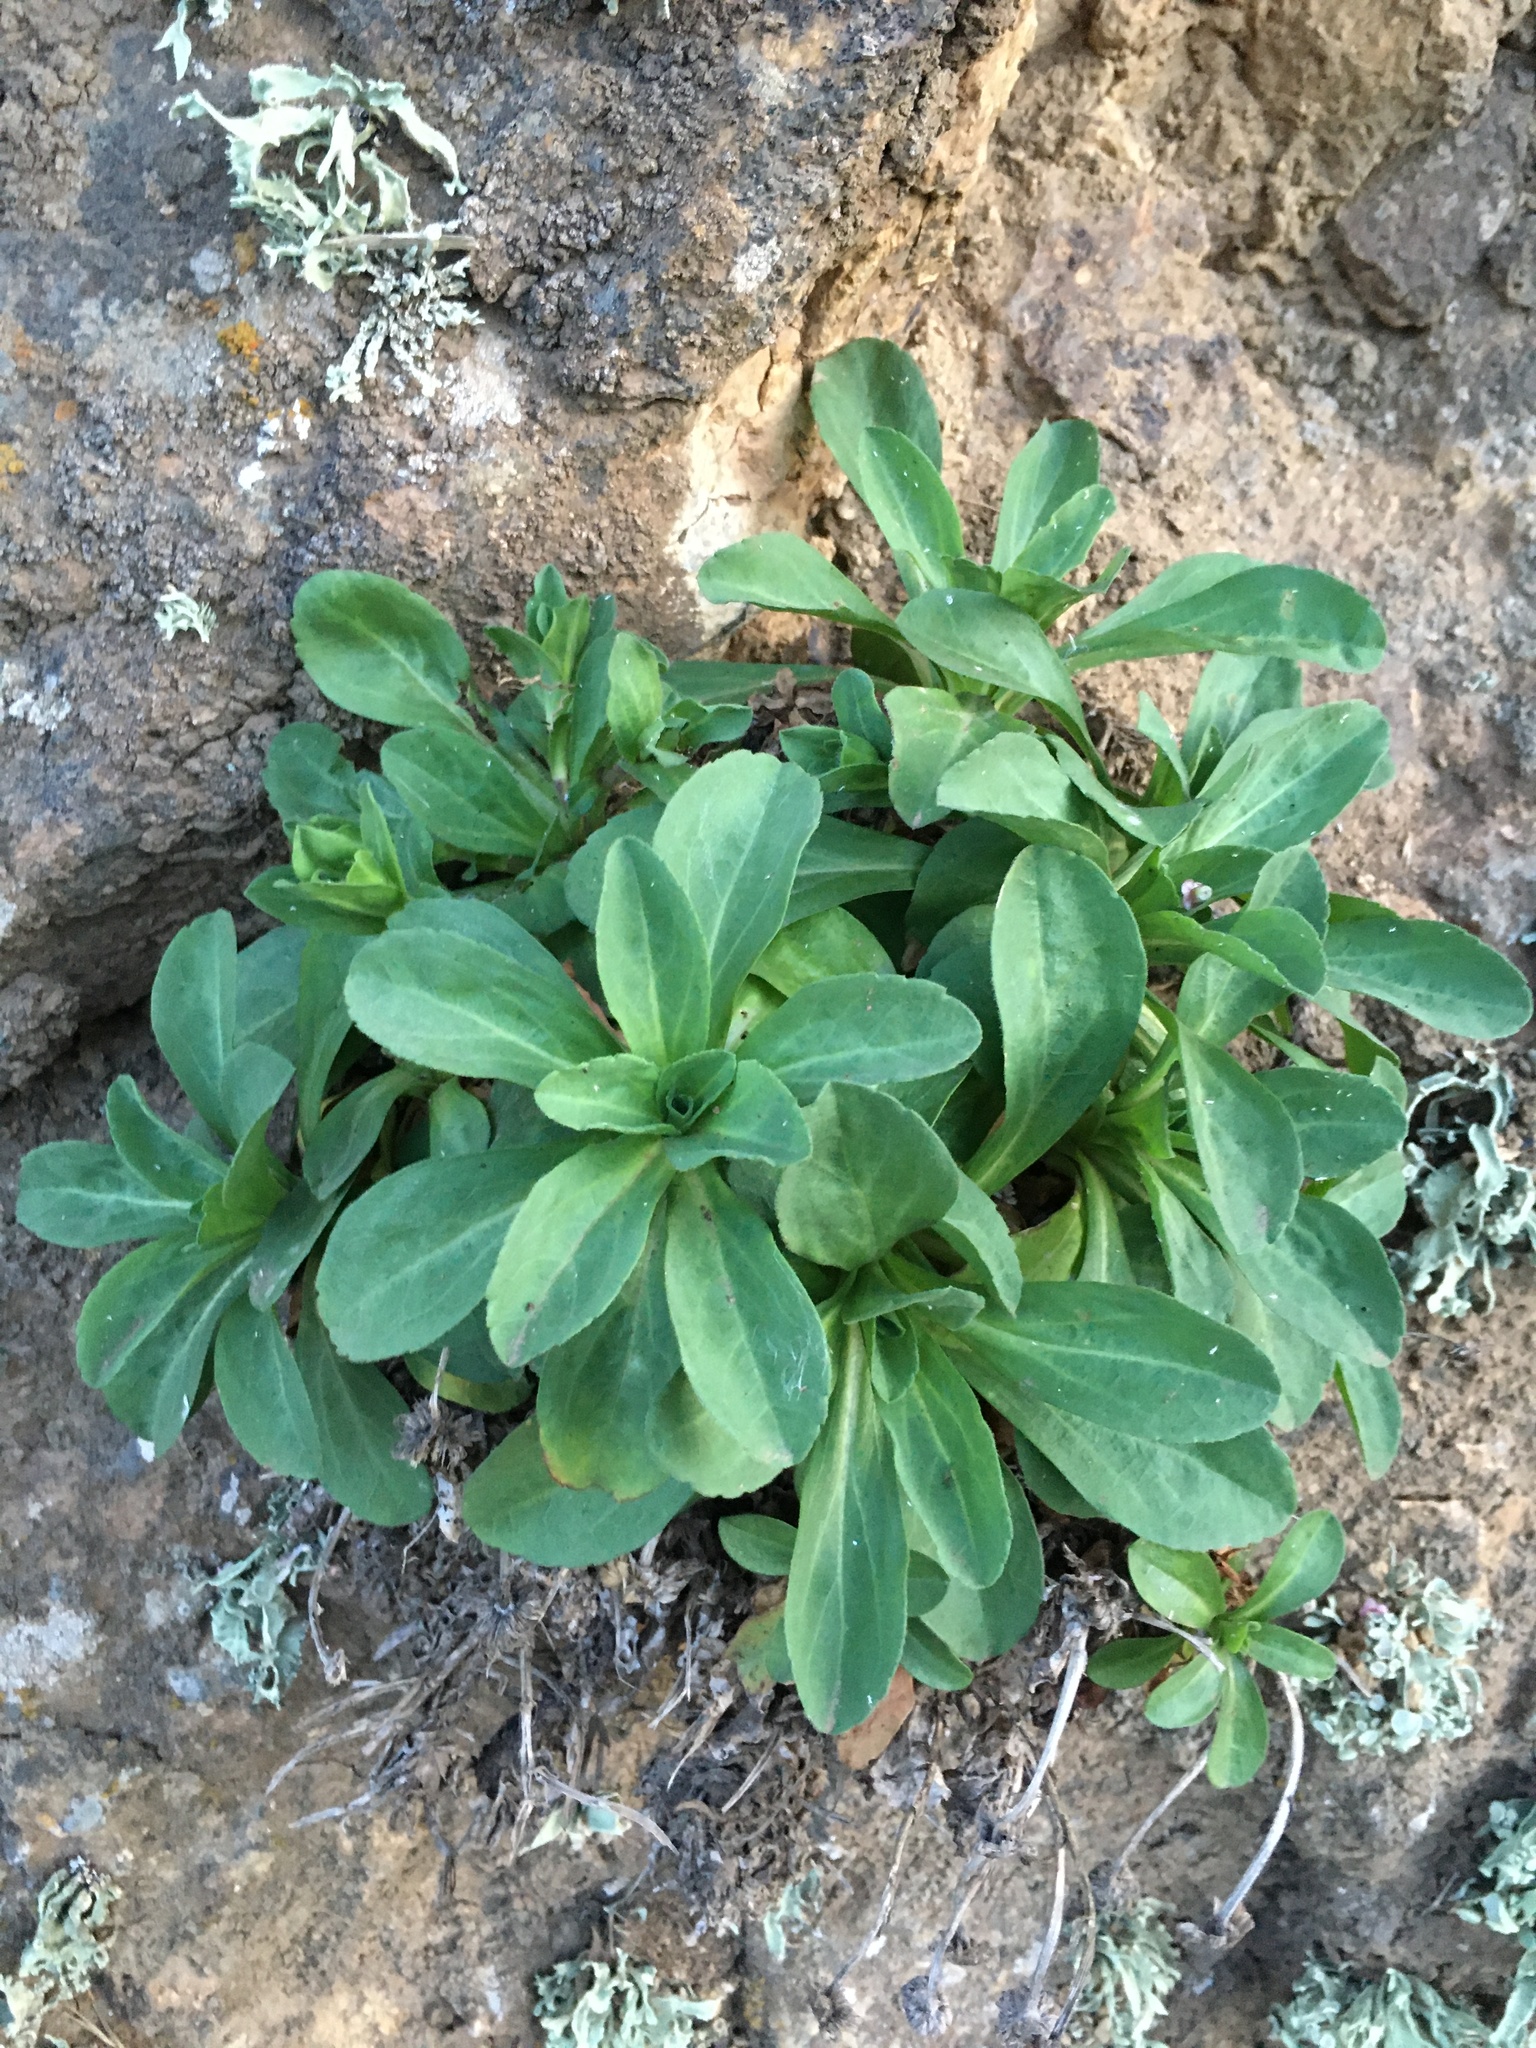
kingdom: Plantae
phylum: Tracheophyta
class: Magnoliopsida
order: Asterales
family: Asteraceae
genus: Erigeron
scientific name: Erigeron glaucus
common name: Seaside daisy
